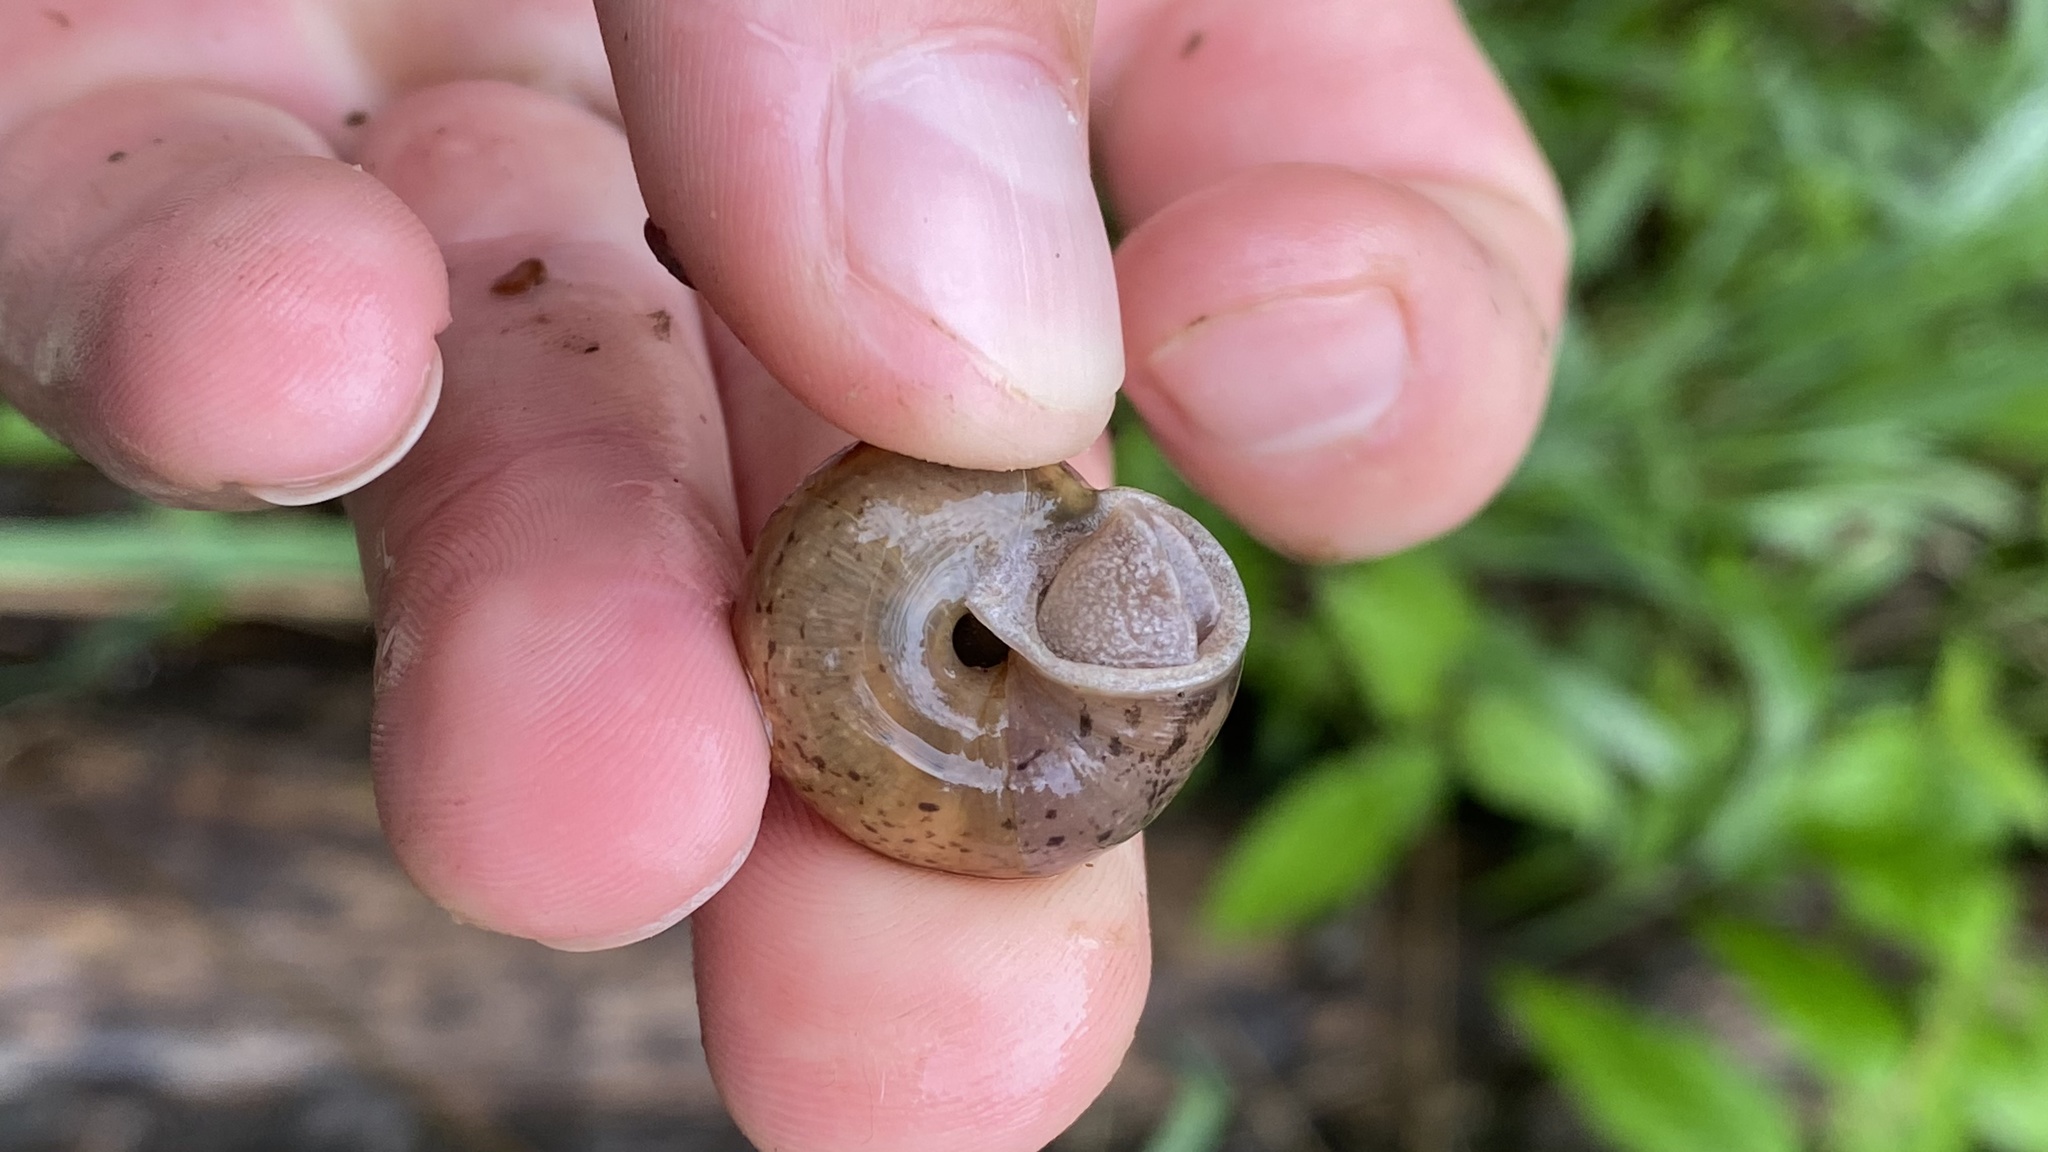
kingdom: Animalia
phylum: Mollusca
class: Gastropoda
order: Stylommatophora
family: Camaenidae
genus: Fruticicola
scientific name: Fruticicola fruticum
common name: Bush snail
